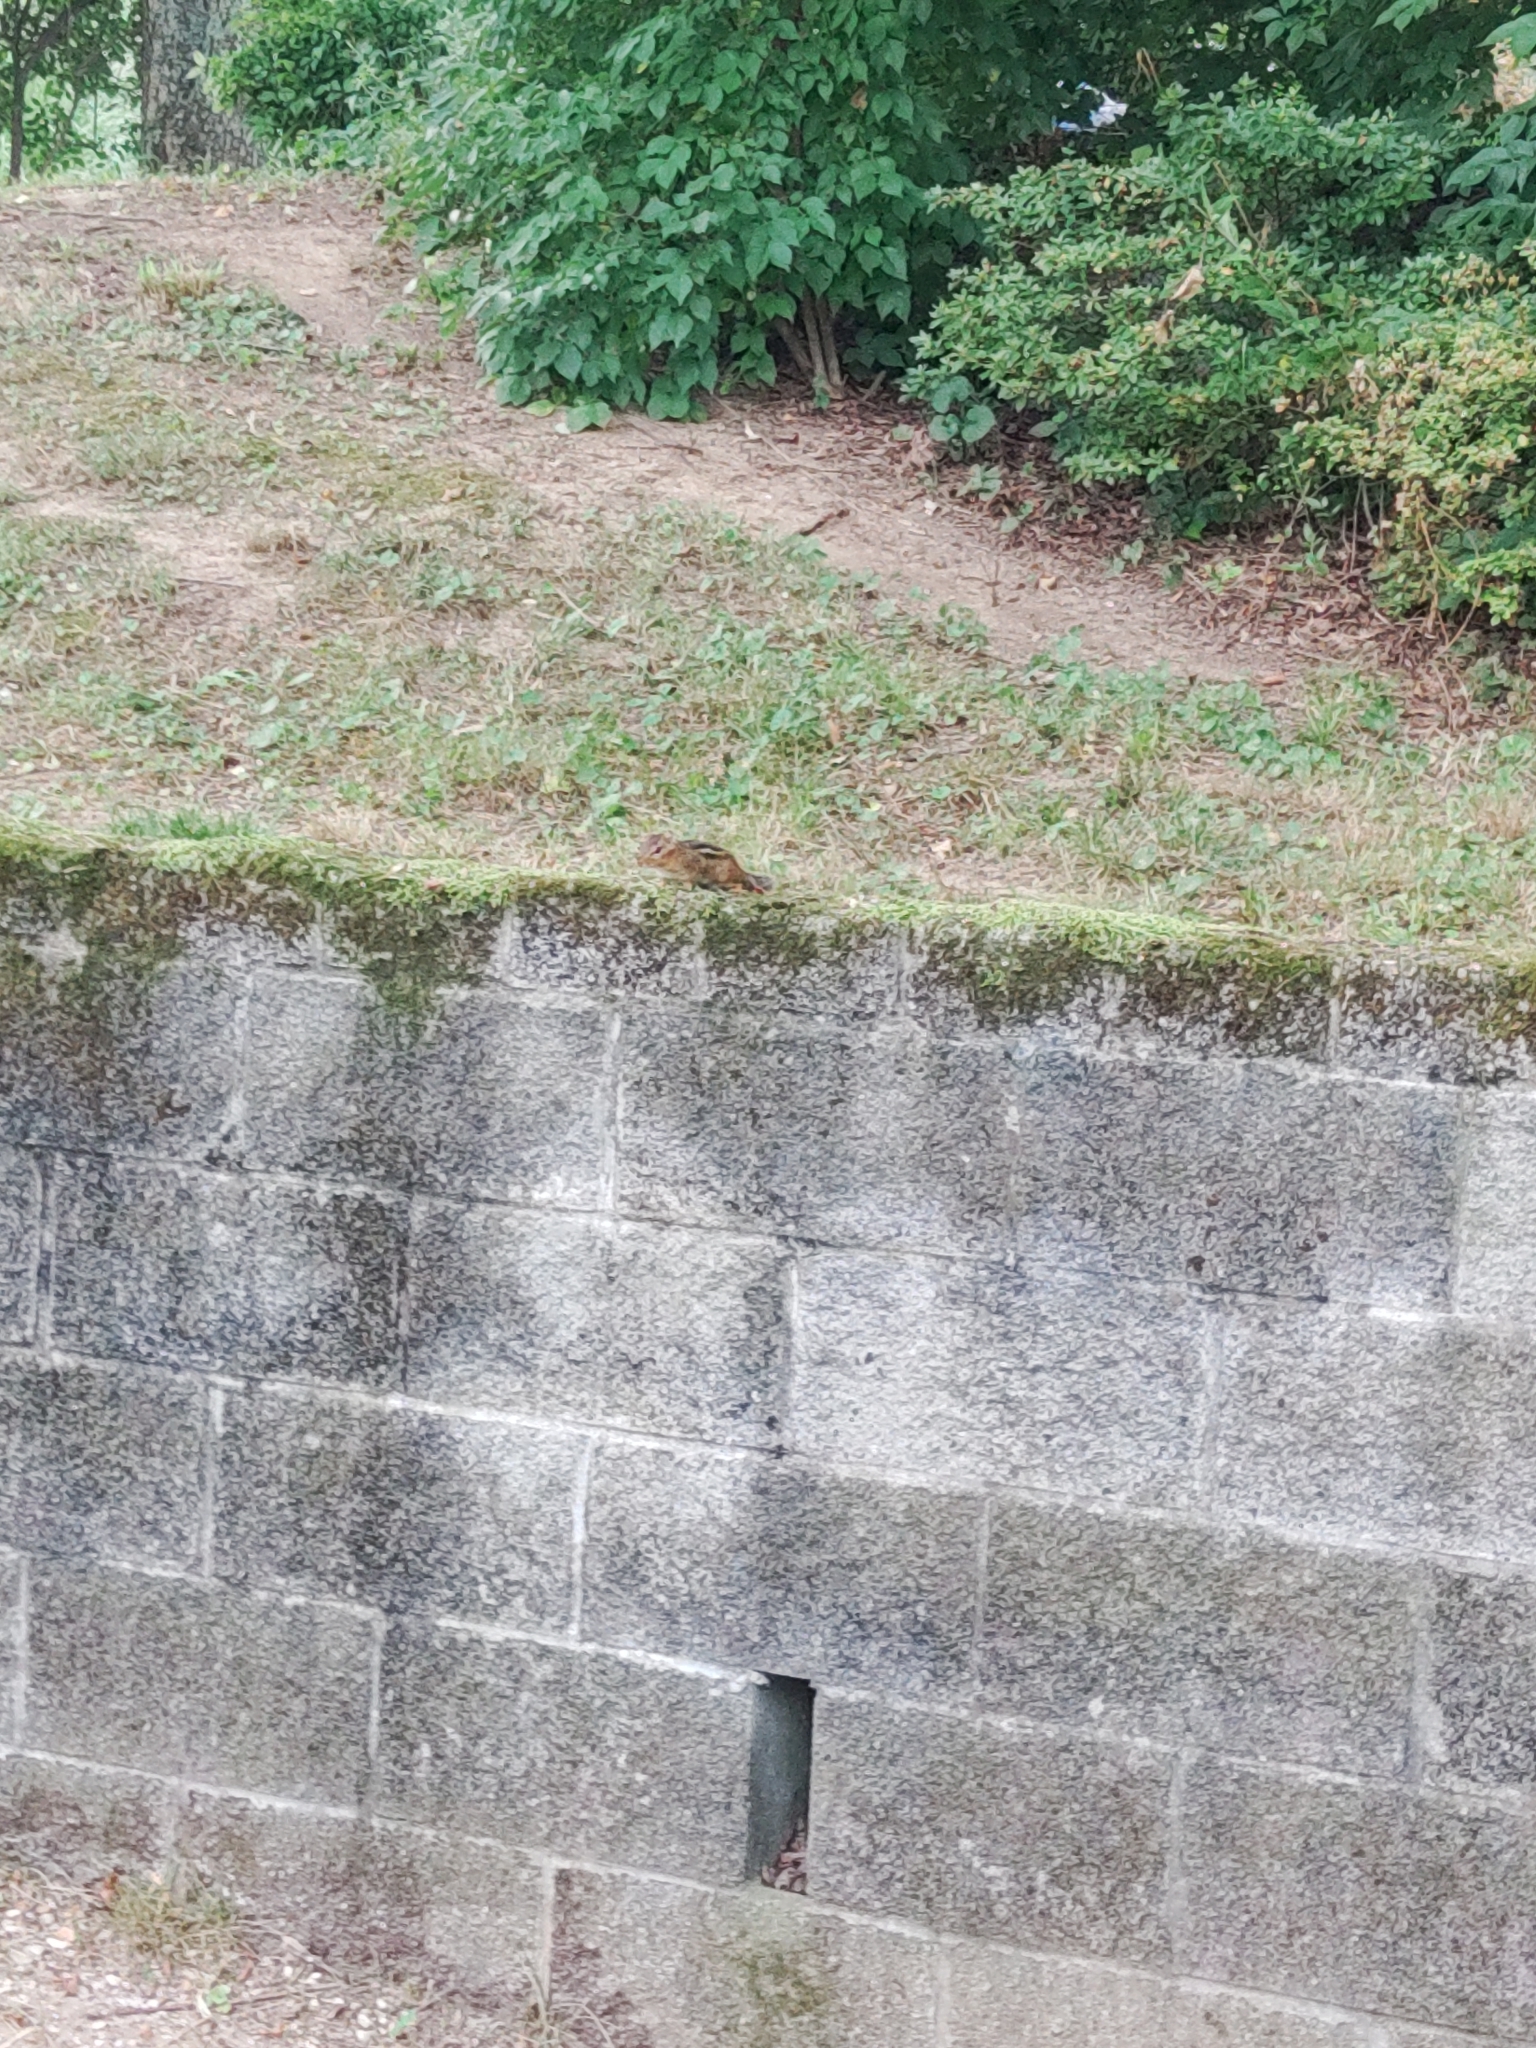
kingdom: Animalia
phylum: Chordata
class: Mammalia
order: Rodentia
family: Sciuridae
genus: Tamias
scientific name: Tamias striatus
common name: Eastern chipmunk
